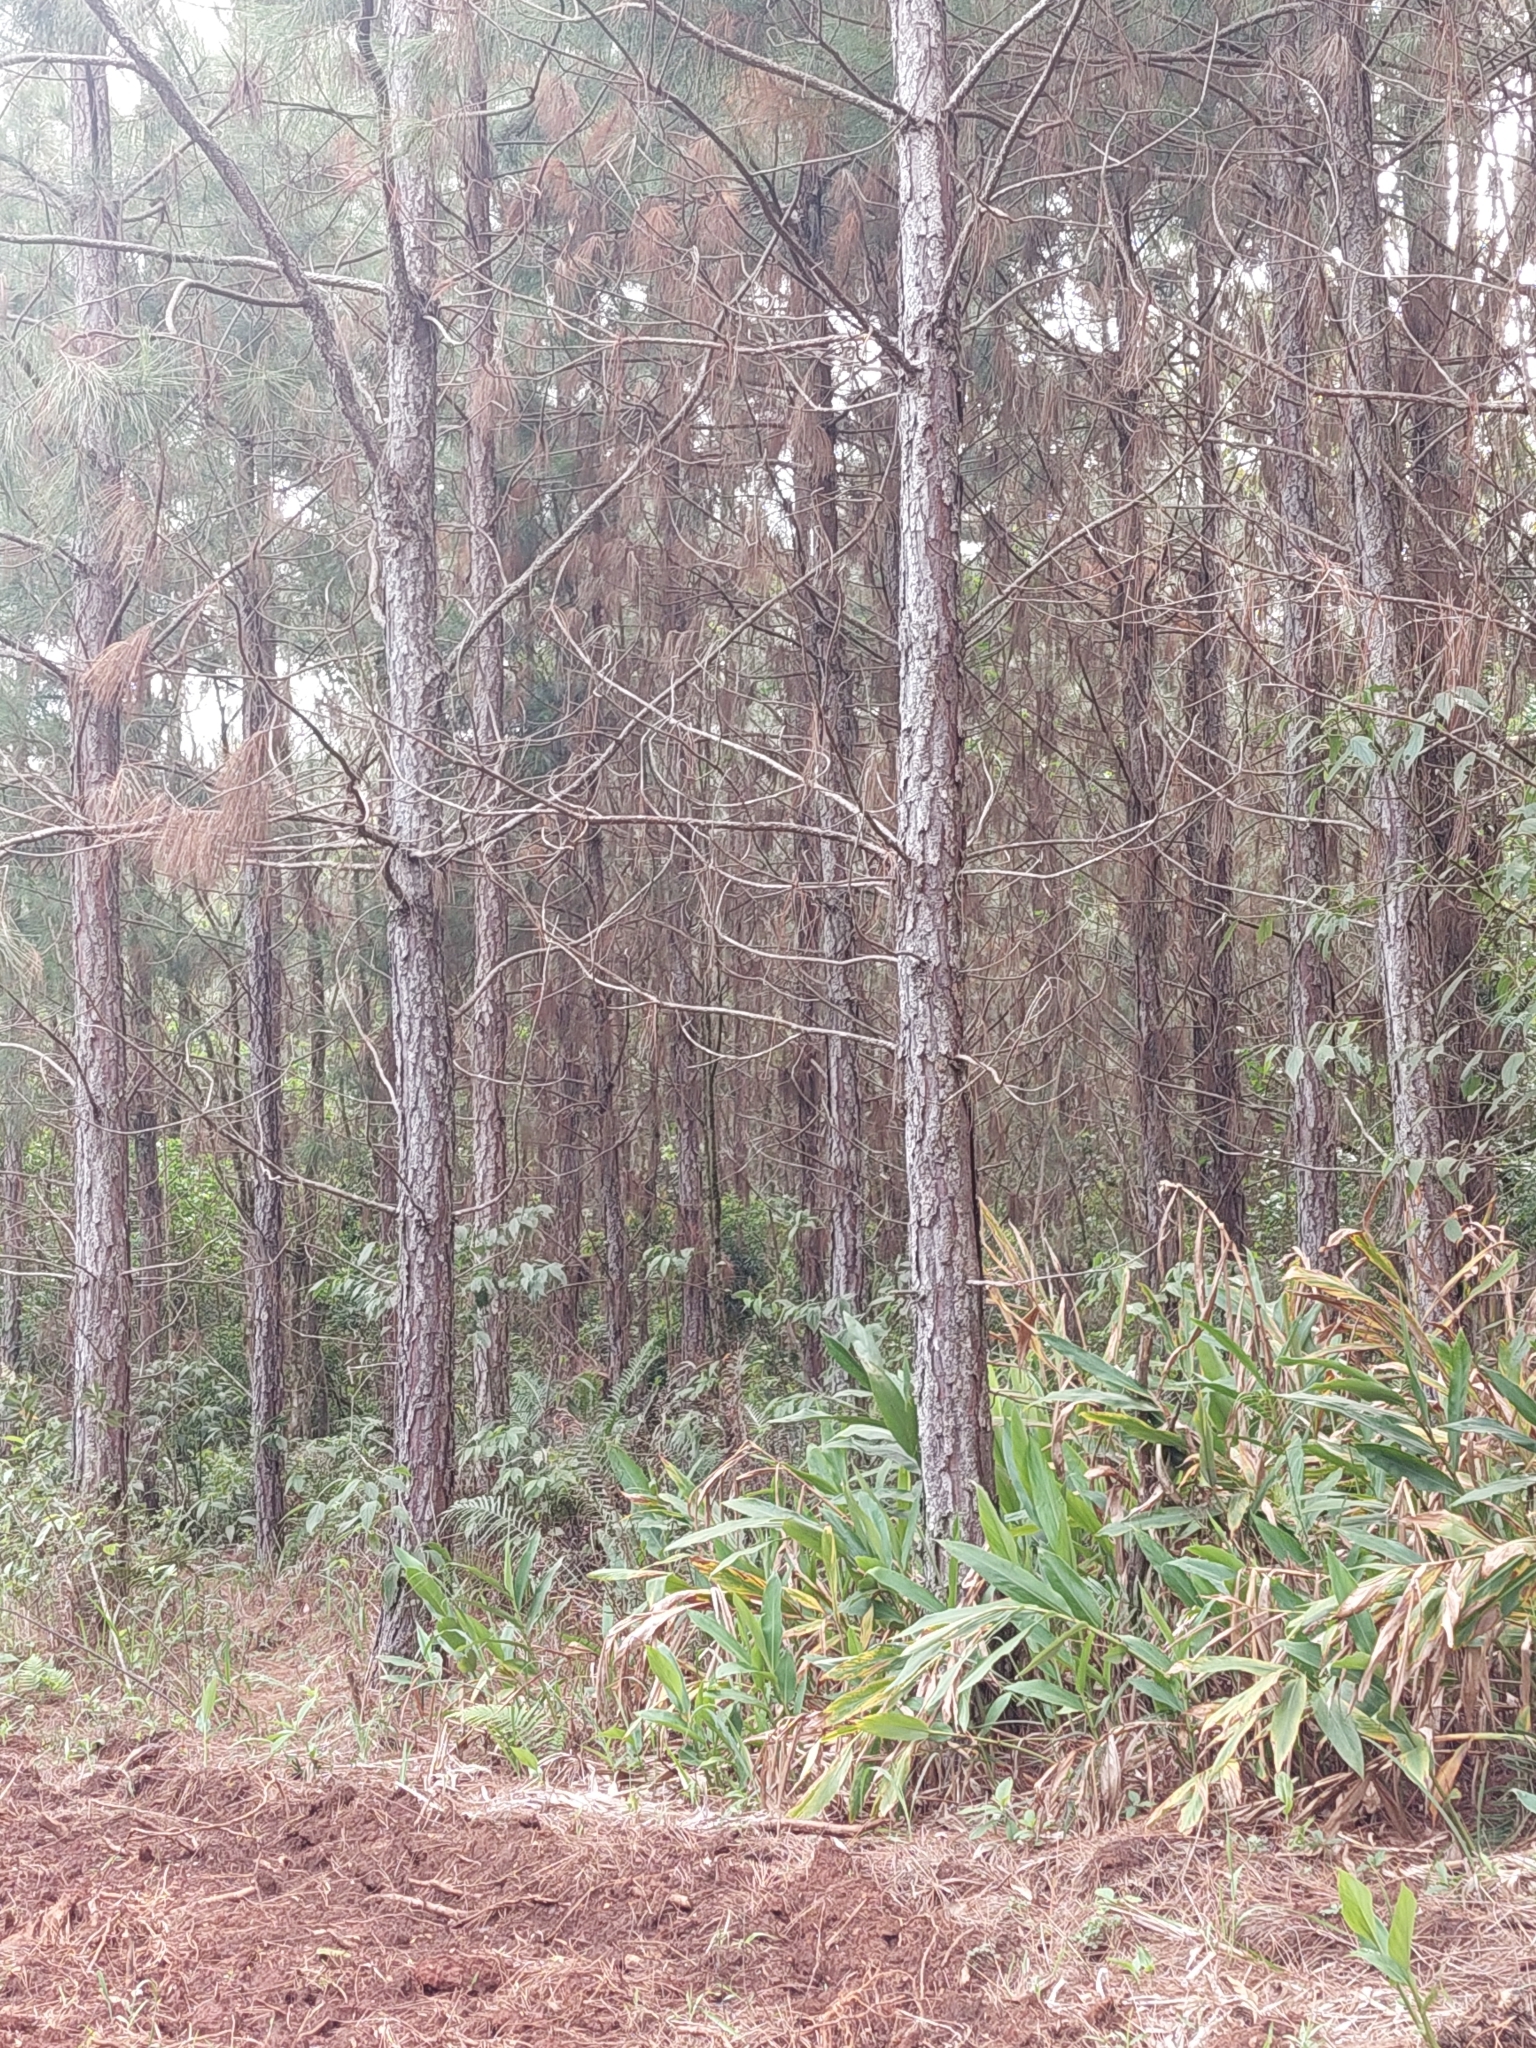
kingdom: Plantae
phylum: Tracheophyta
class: Liliopsida
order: Zingiberales
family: Zingiberaceae
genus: Hedychium
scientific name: Hedychium coronarium
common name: White garland-lily
